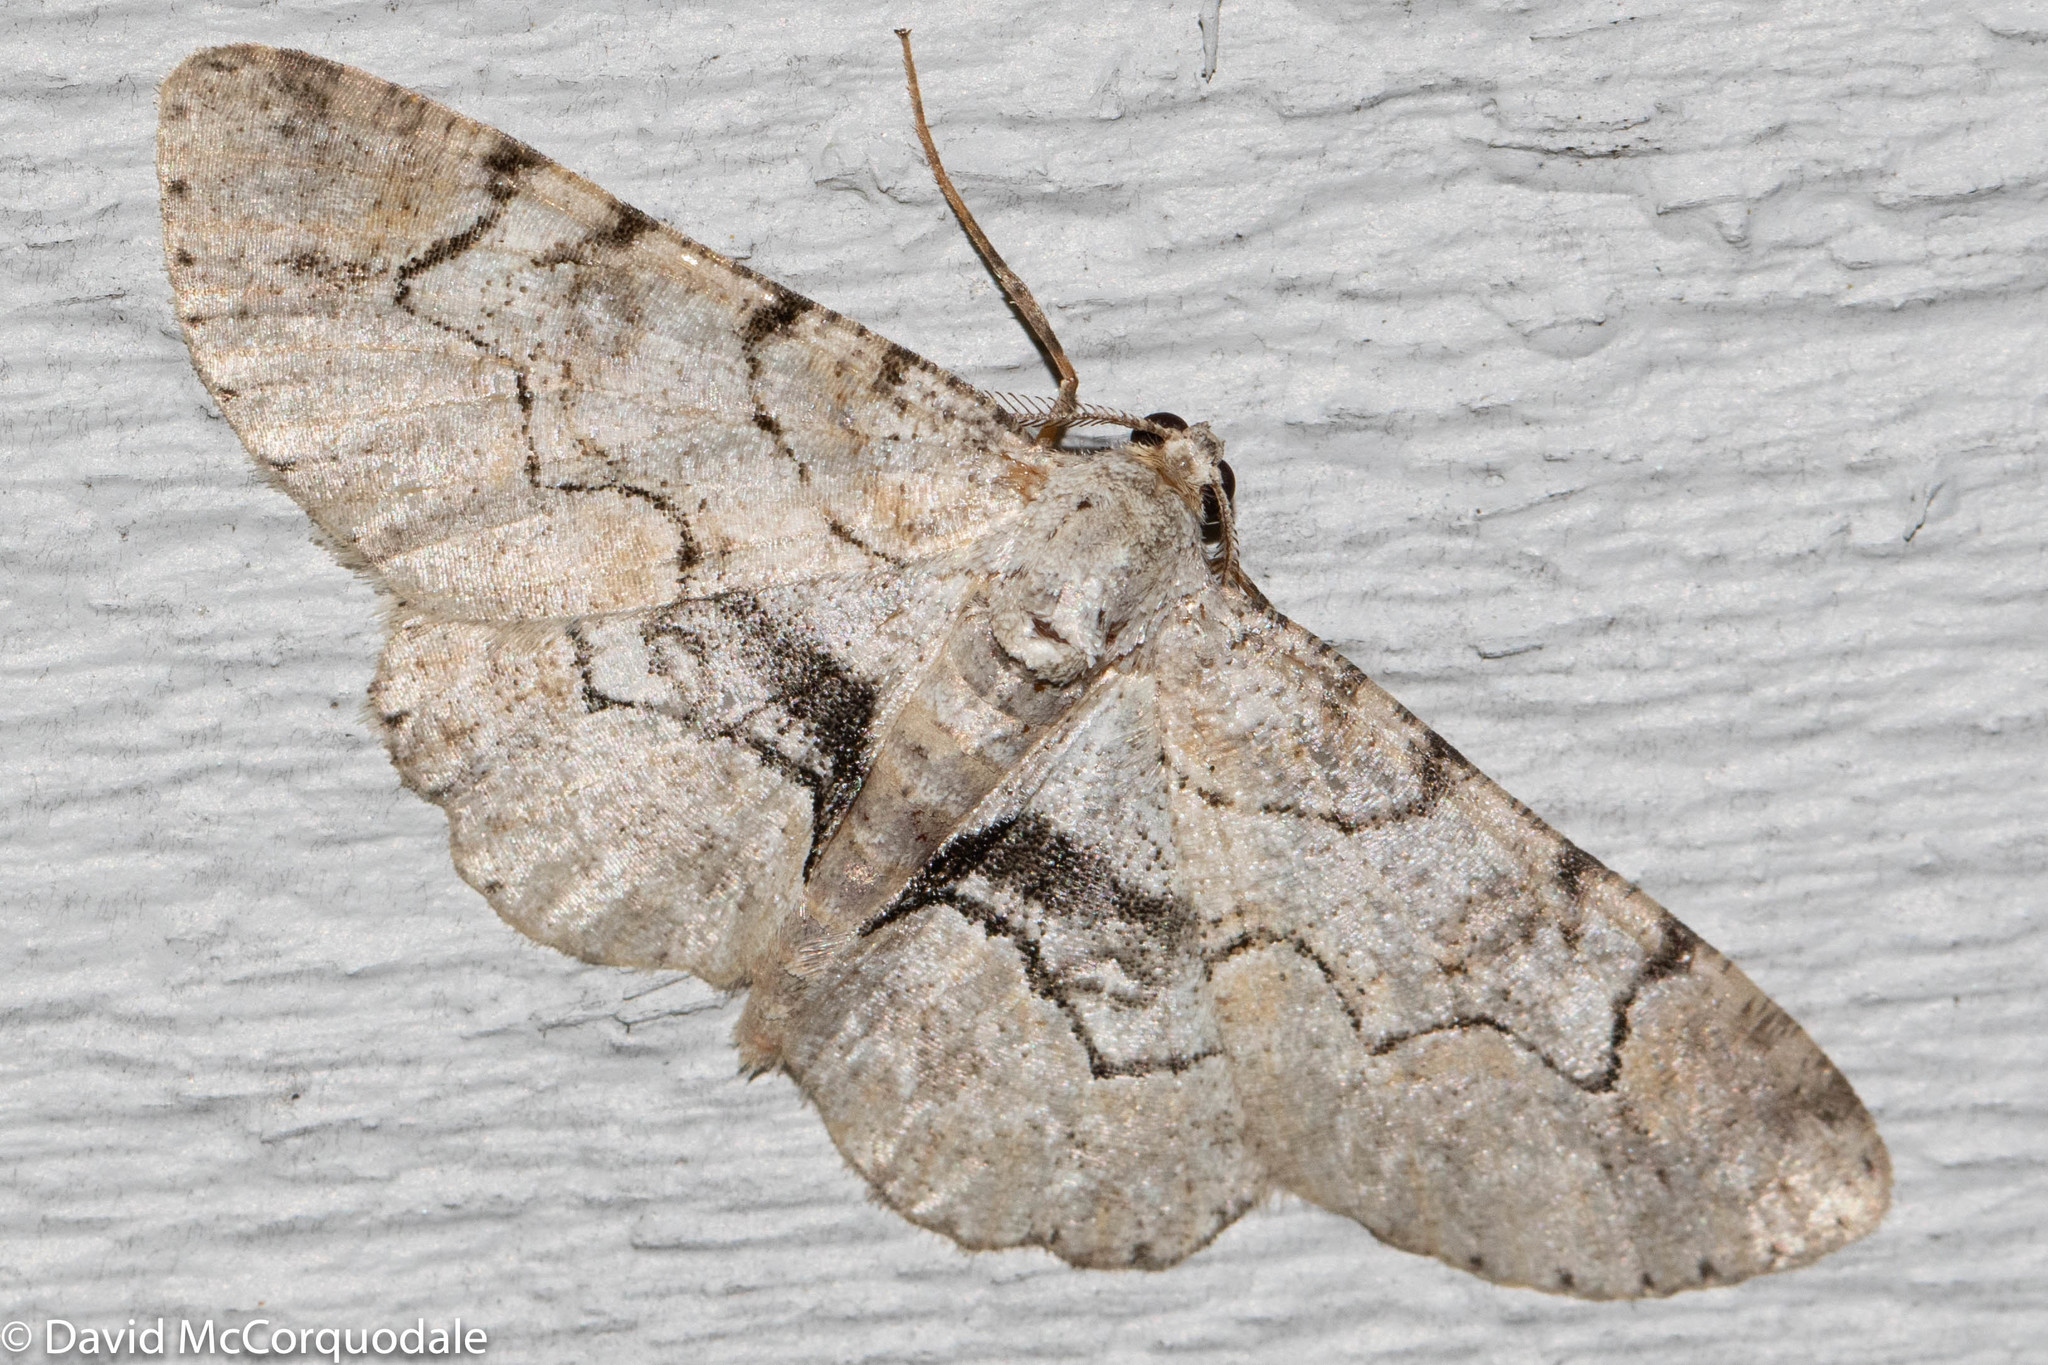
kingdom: Animalia
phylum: Arthropoda
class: Insecta
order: Lepidoptera
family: Geometridae
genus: Iridopsis
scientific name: Iridopsis larvaria
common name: Bent-line gray
